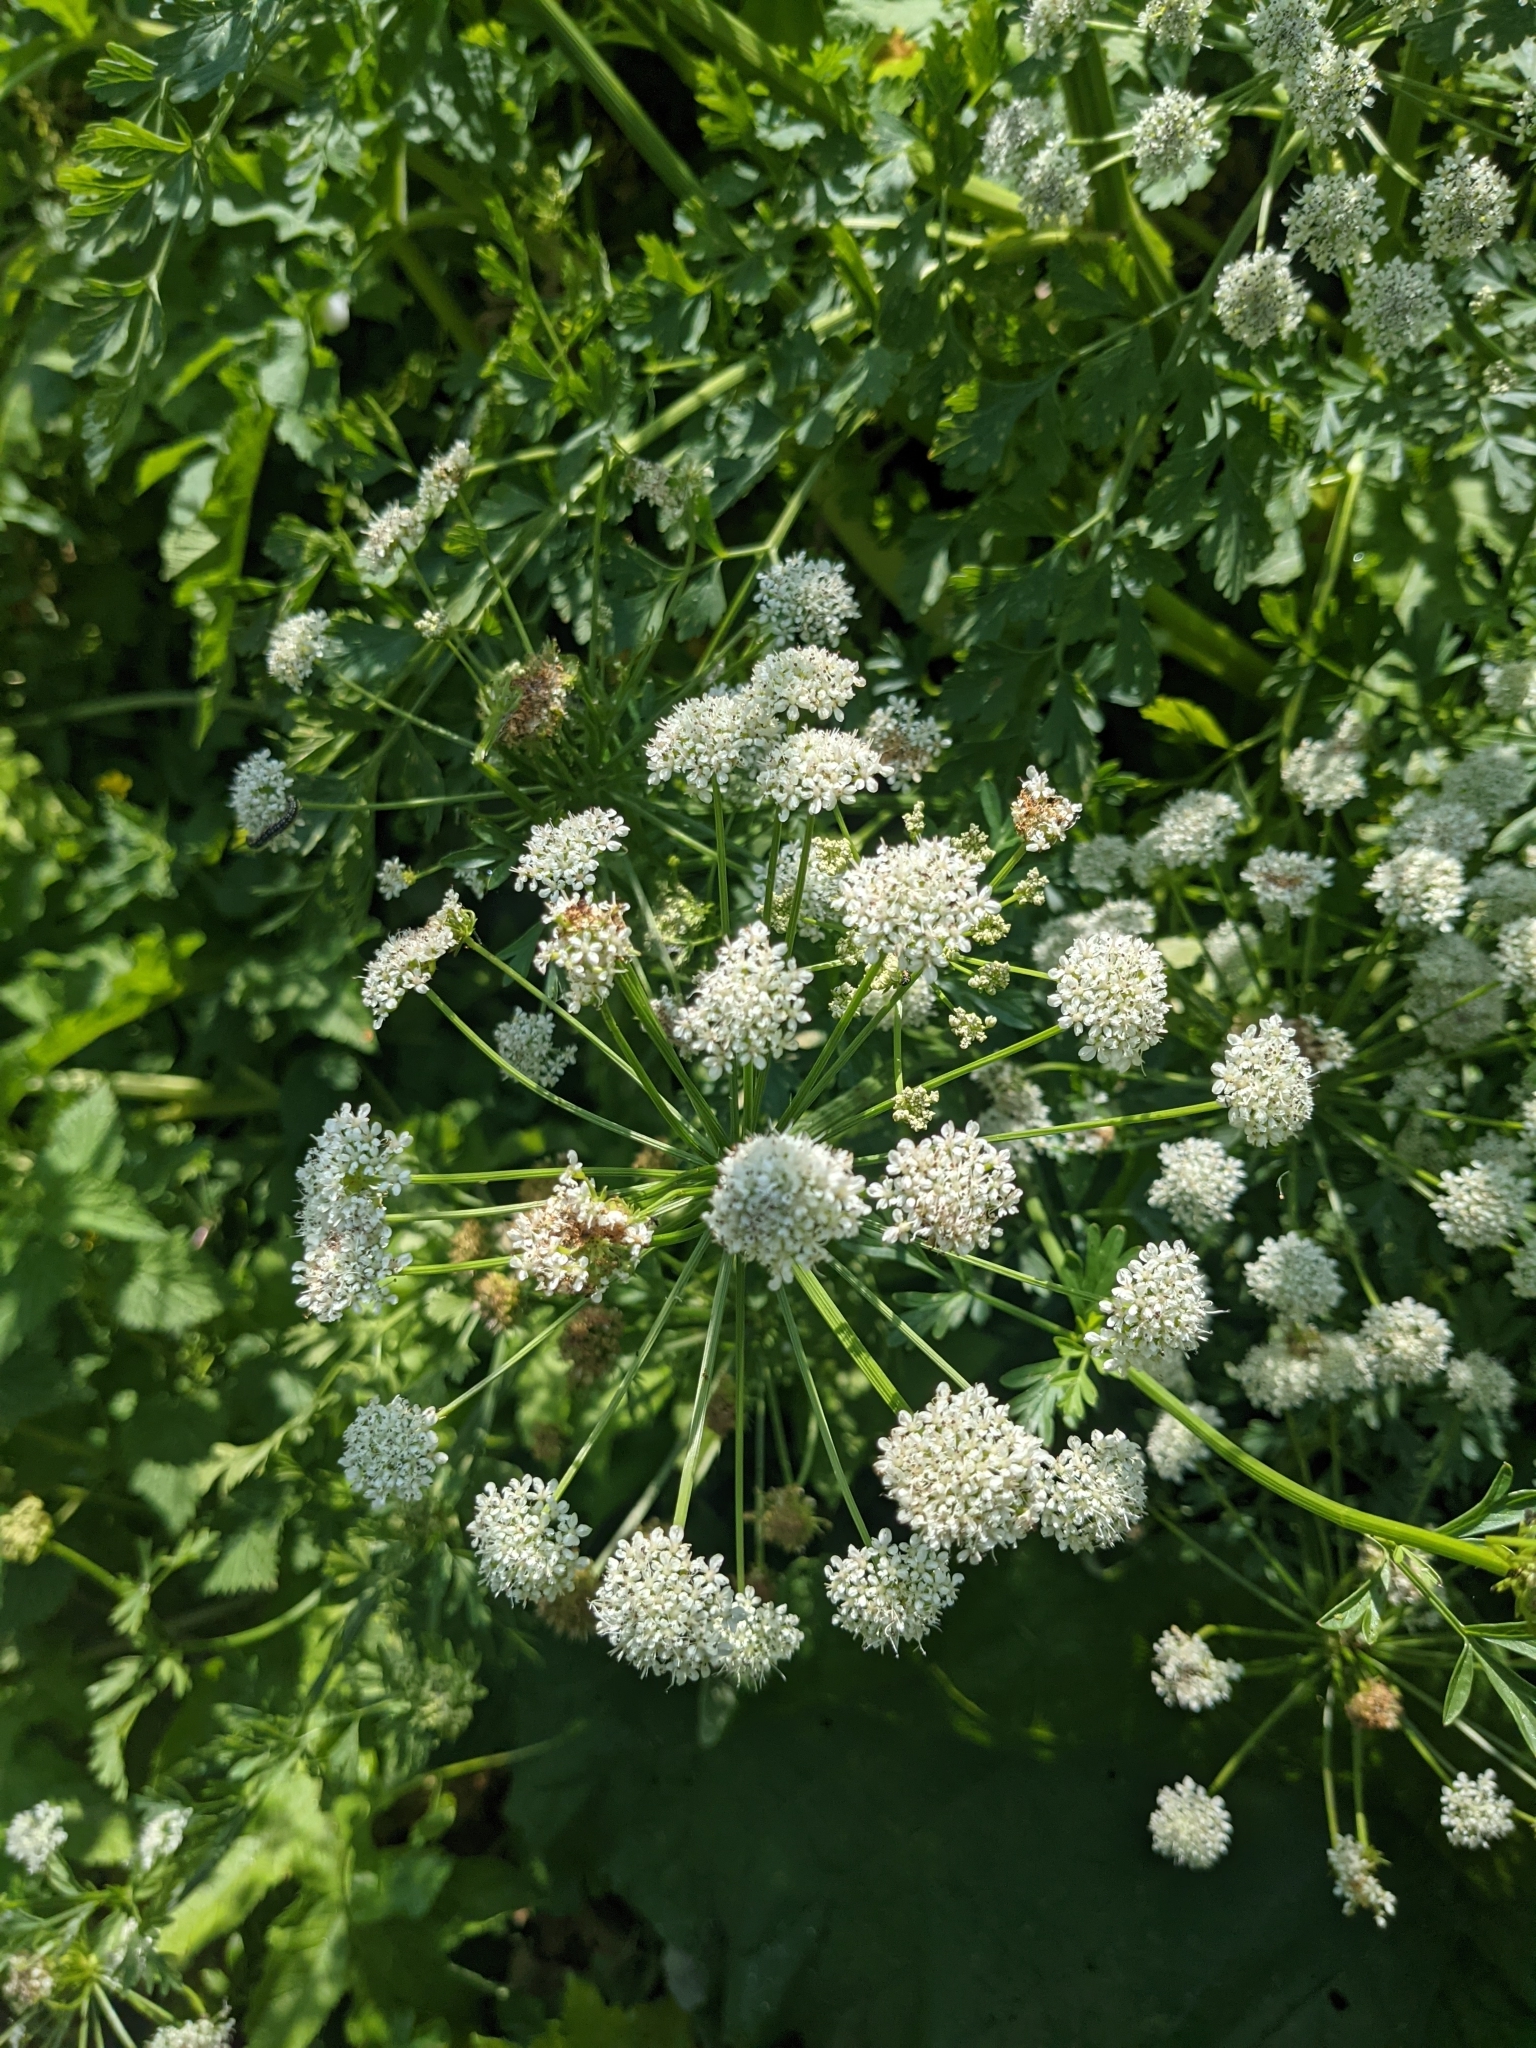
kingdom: Plantae
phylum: Tracheophyta
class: Magnoliopsida
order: Apiales
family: Apiaceae
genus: Oenanthe
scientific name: Oenanthe crocata
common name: Hemlock water-dropwort
